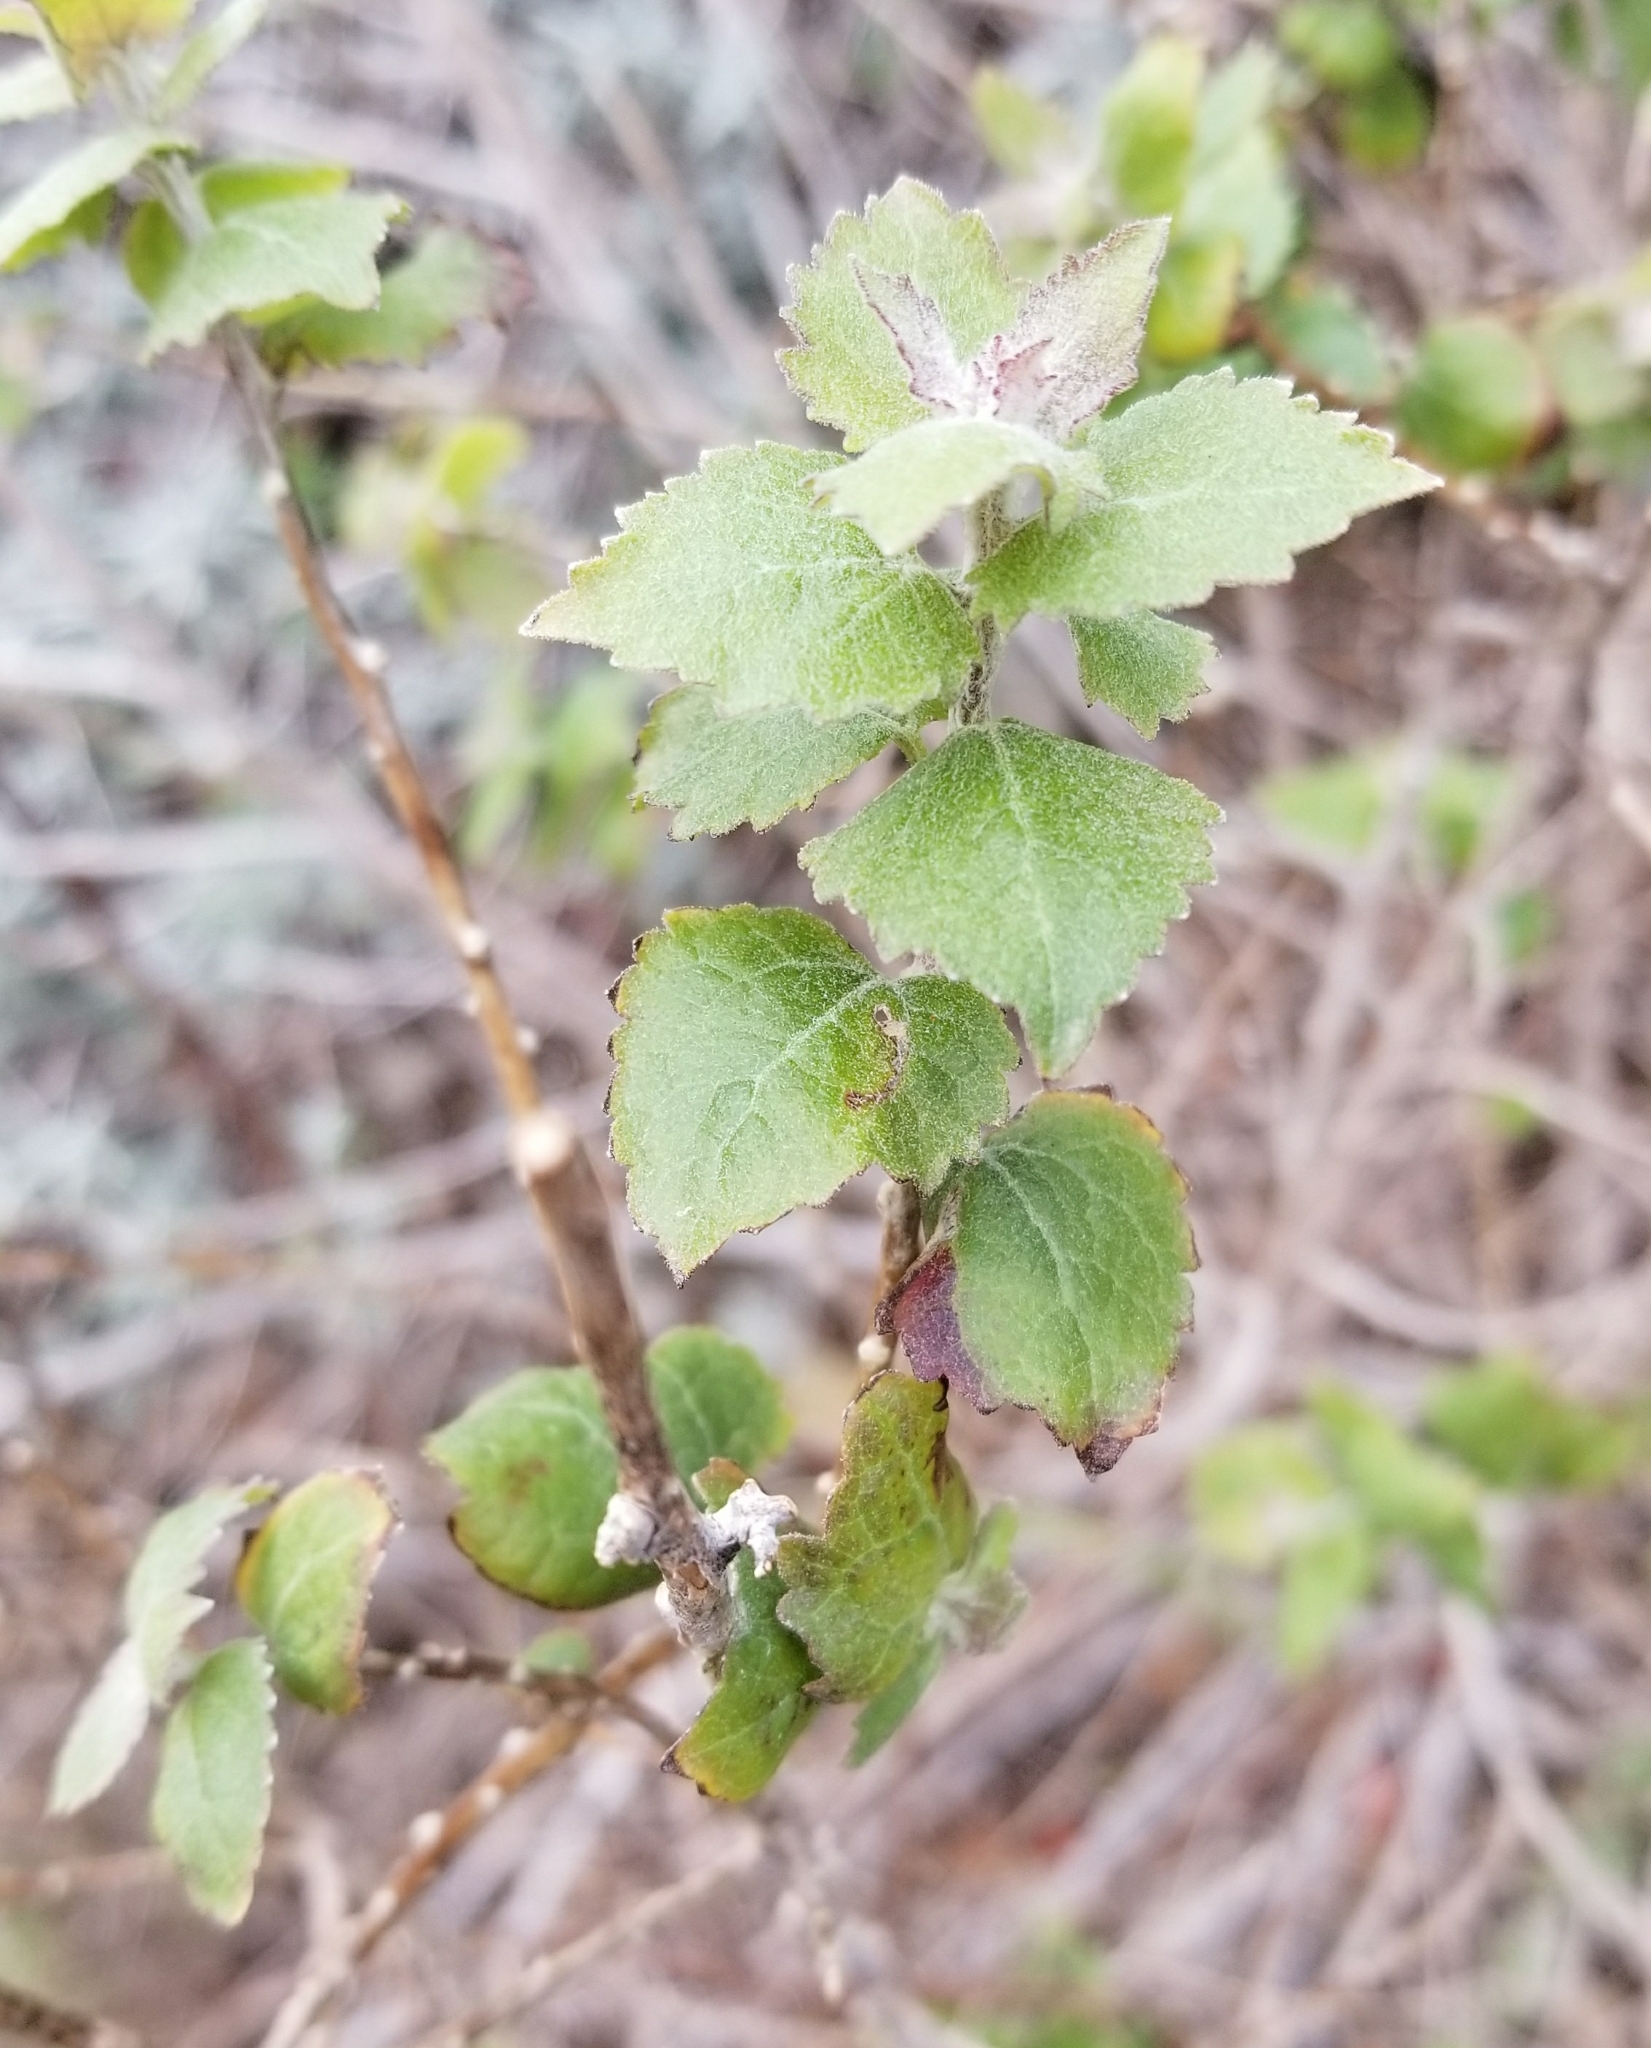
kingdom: Plantae
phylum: Tracheophyta
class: Magnoliopsida
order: Asterales
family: Asteraceae
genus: Brickellia
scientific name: Brickellia californica
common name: California brickellbush
